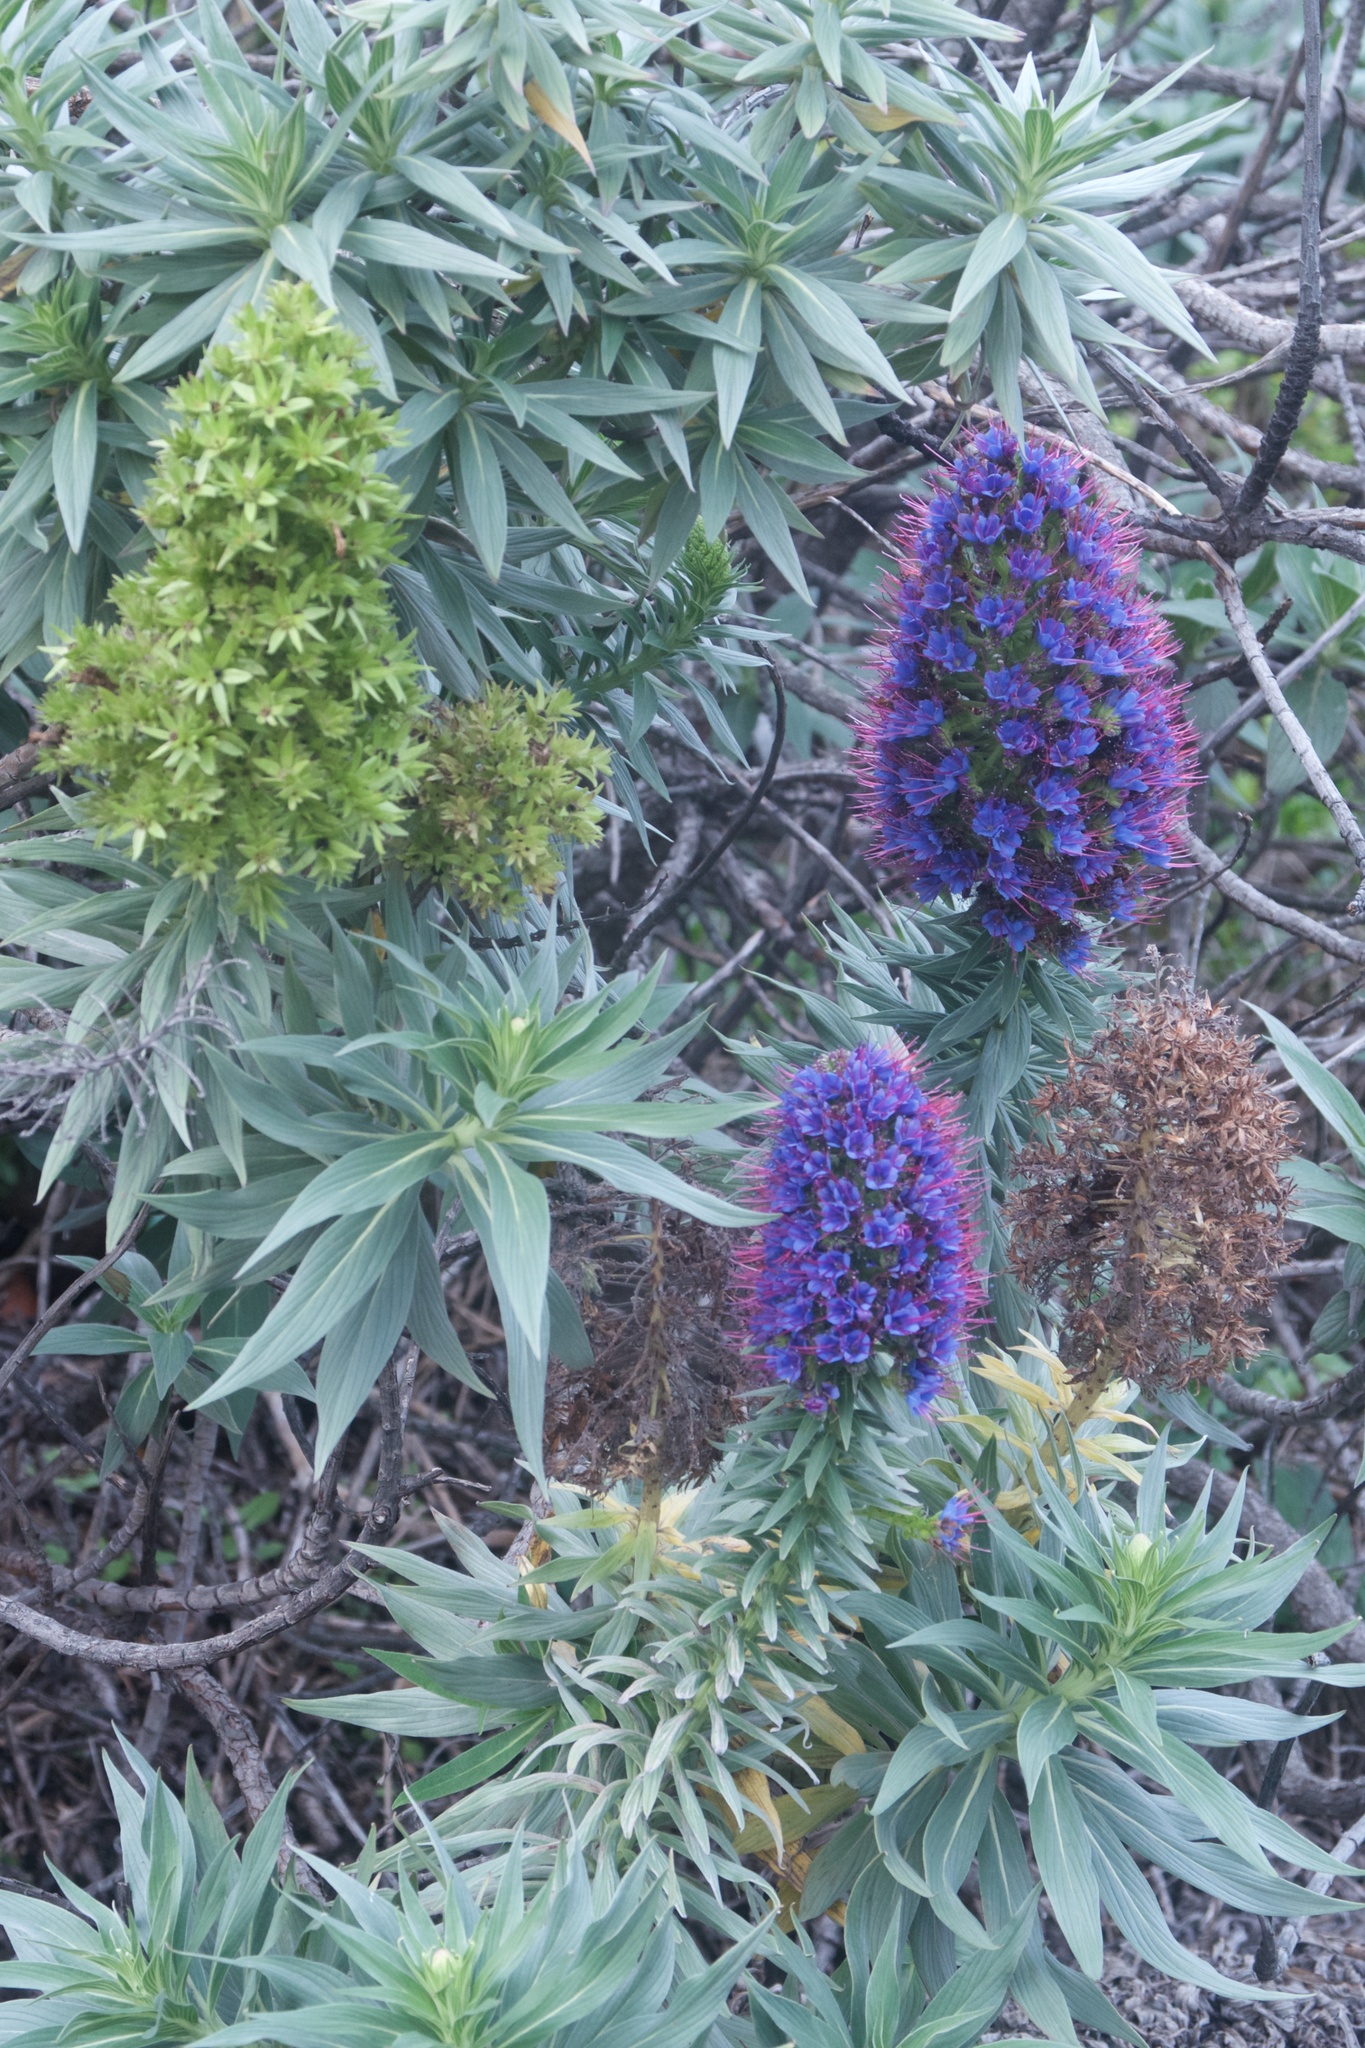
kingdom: Plantae
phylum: Tracheophyta
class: Magnoliopsida
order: Boraginales
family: Boraginaceae
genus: Echium
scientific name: Echium candicans
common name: Pride of madeira
